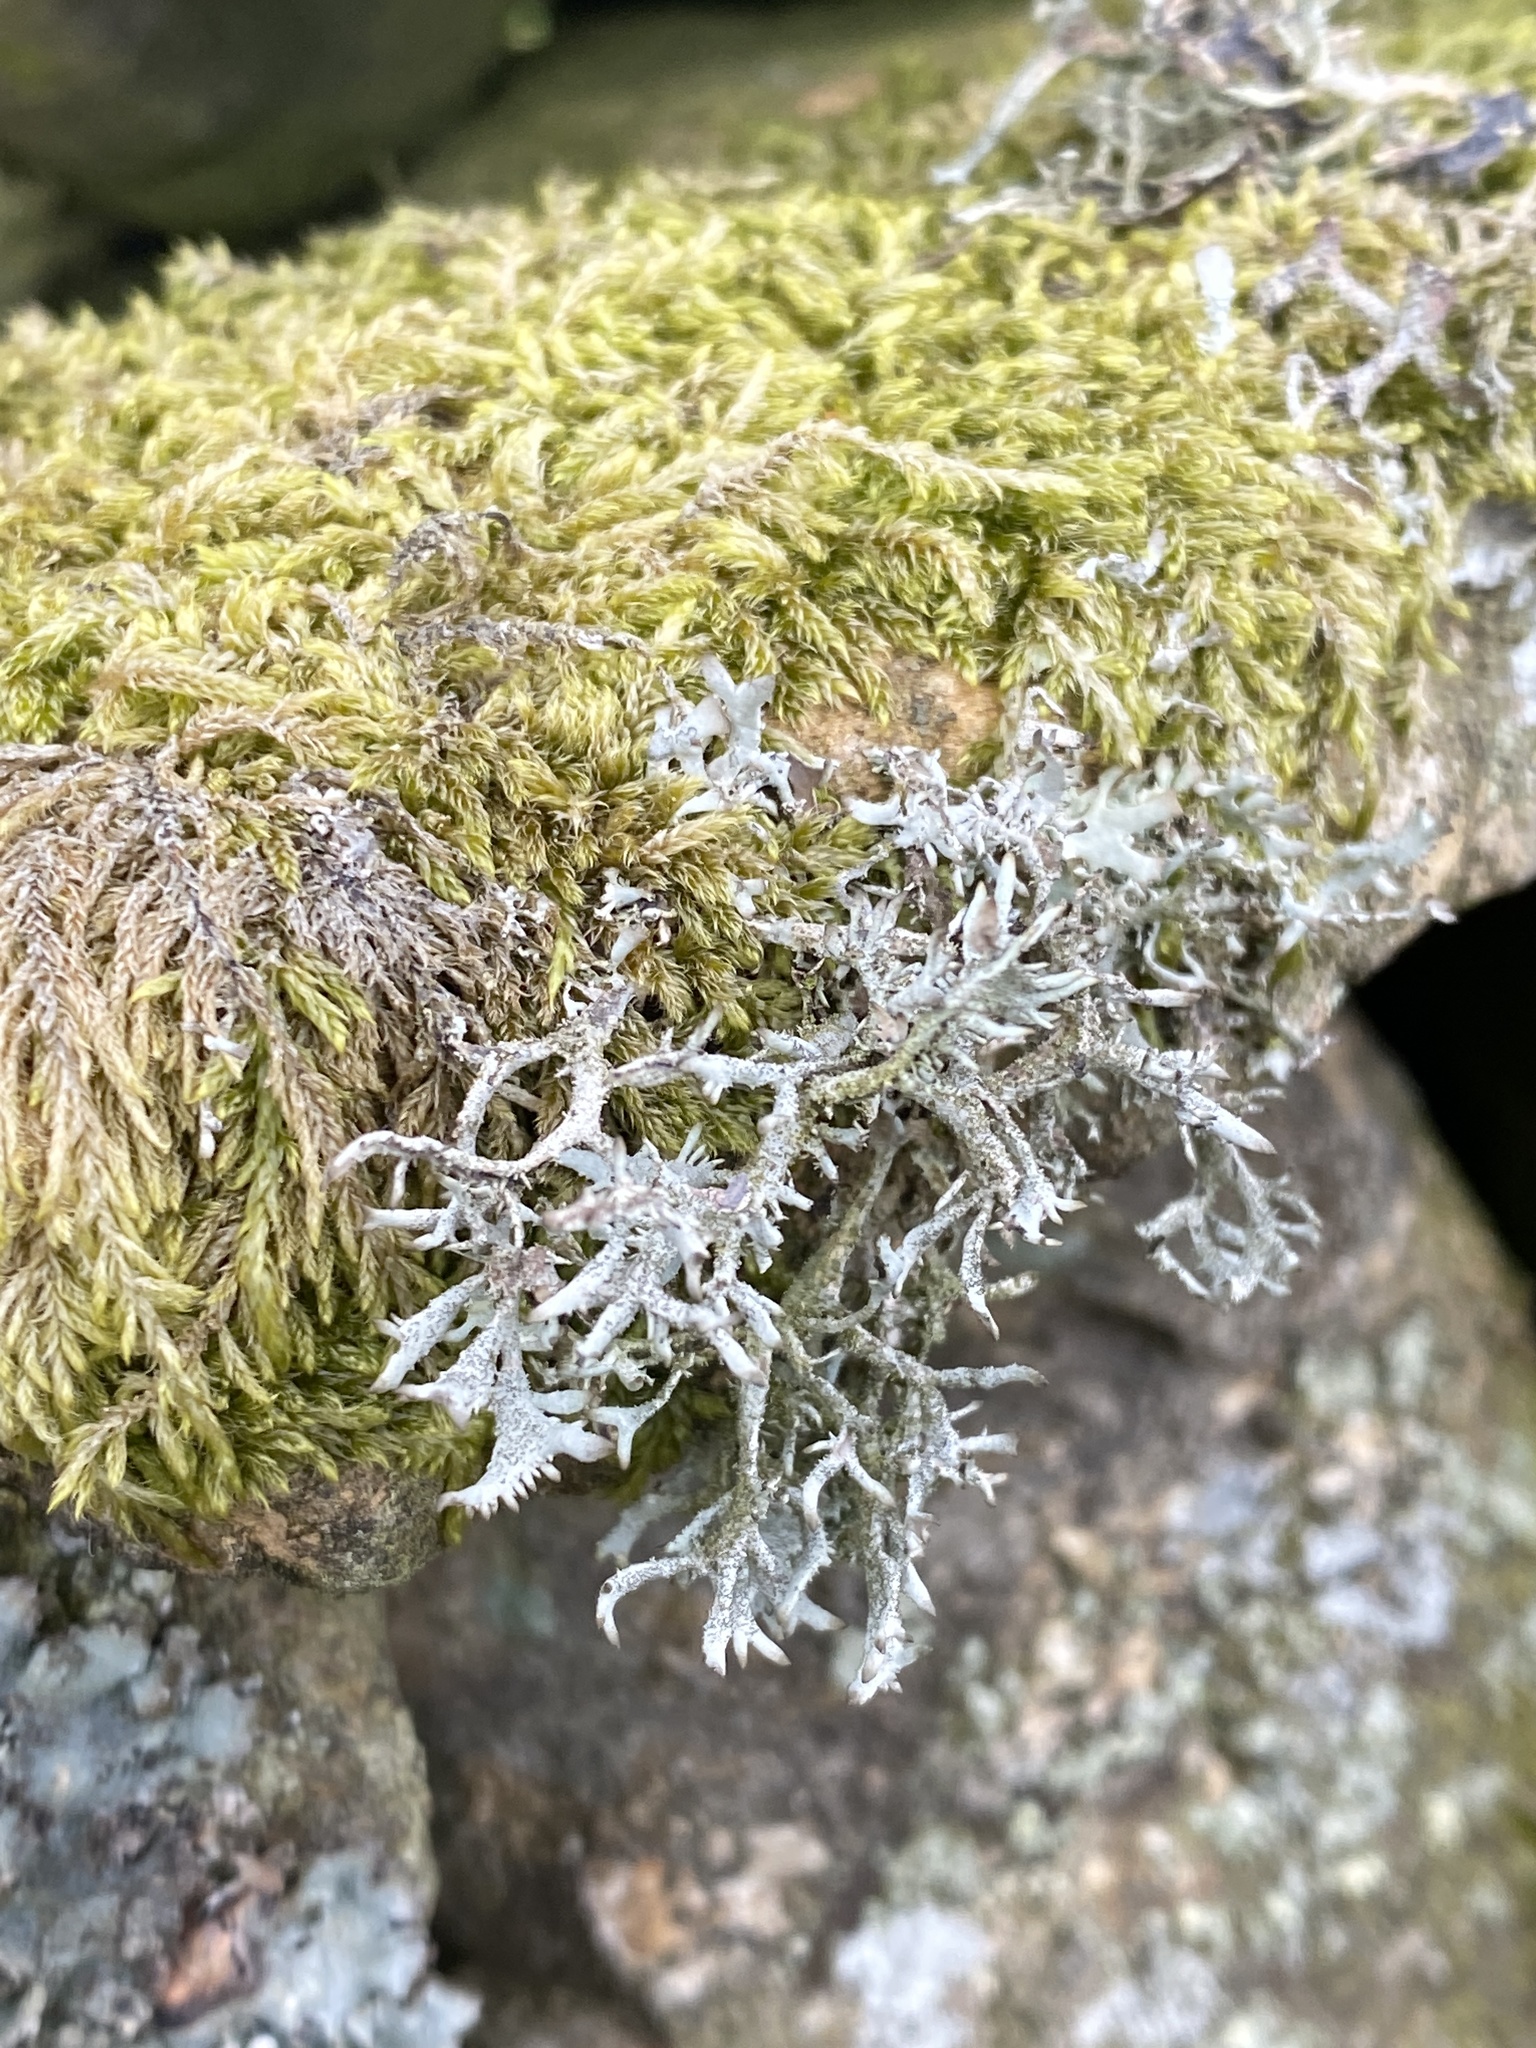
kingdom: Fungi
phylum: Ascomycota
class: Lecanoromycetes
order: Lecanorales
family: Parmeliaceae
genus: Pseudevernia
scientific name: Pseudevernia furfuracea
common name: Tree moss
